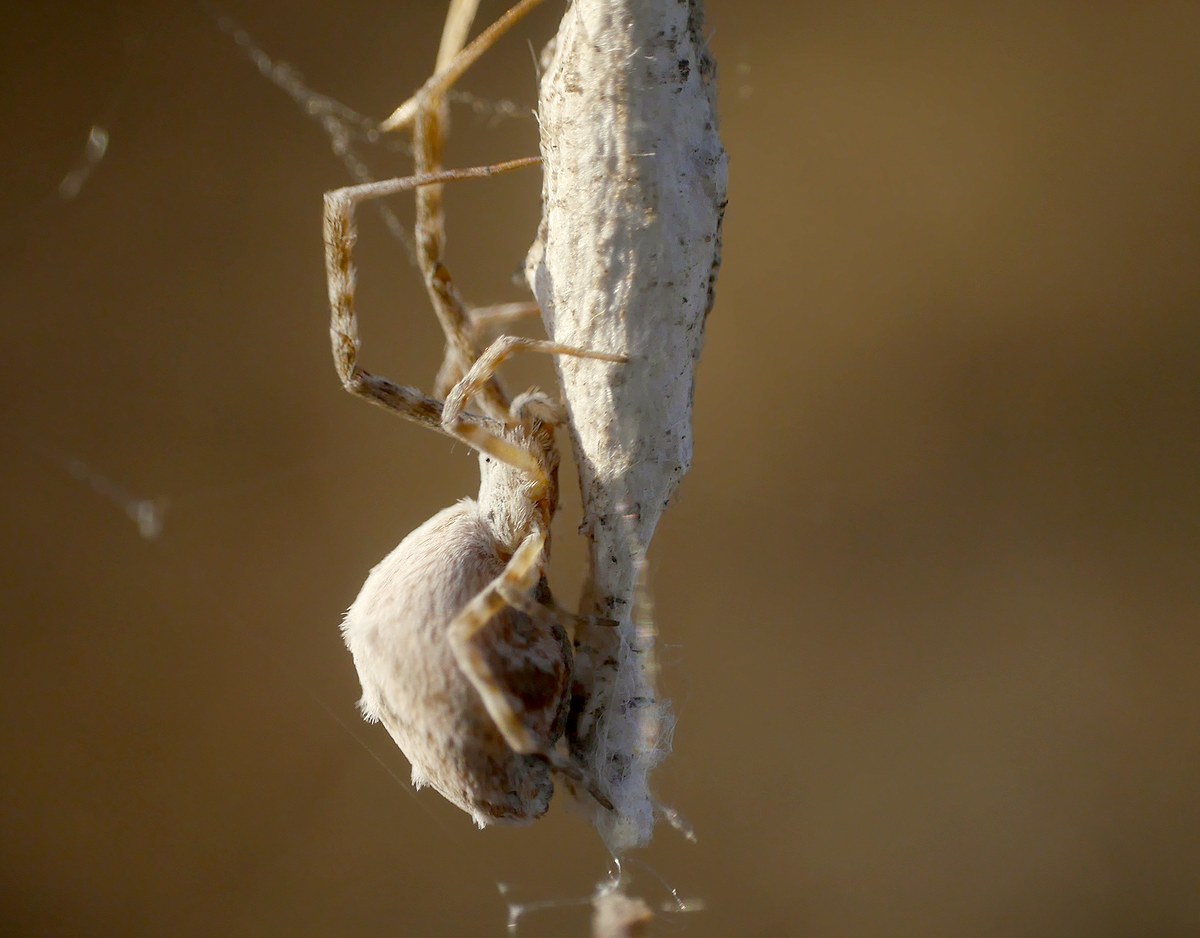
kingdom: Animalia
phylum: Arthropoda
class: Arachnida
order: Araneae
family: Uloboridae
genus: Uloborus
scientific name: Uloborus walckenaerius
